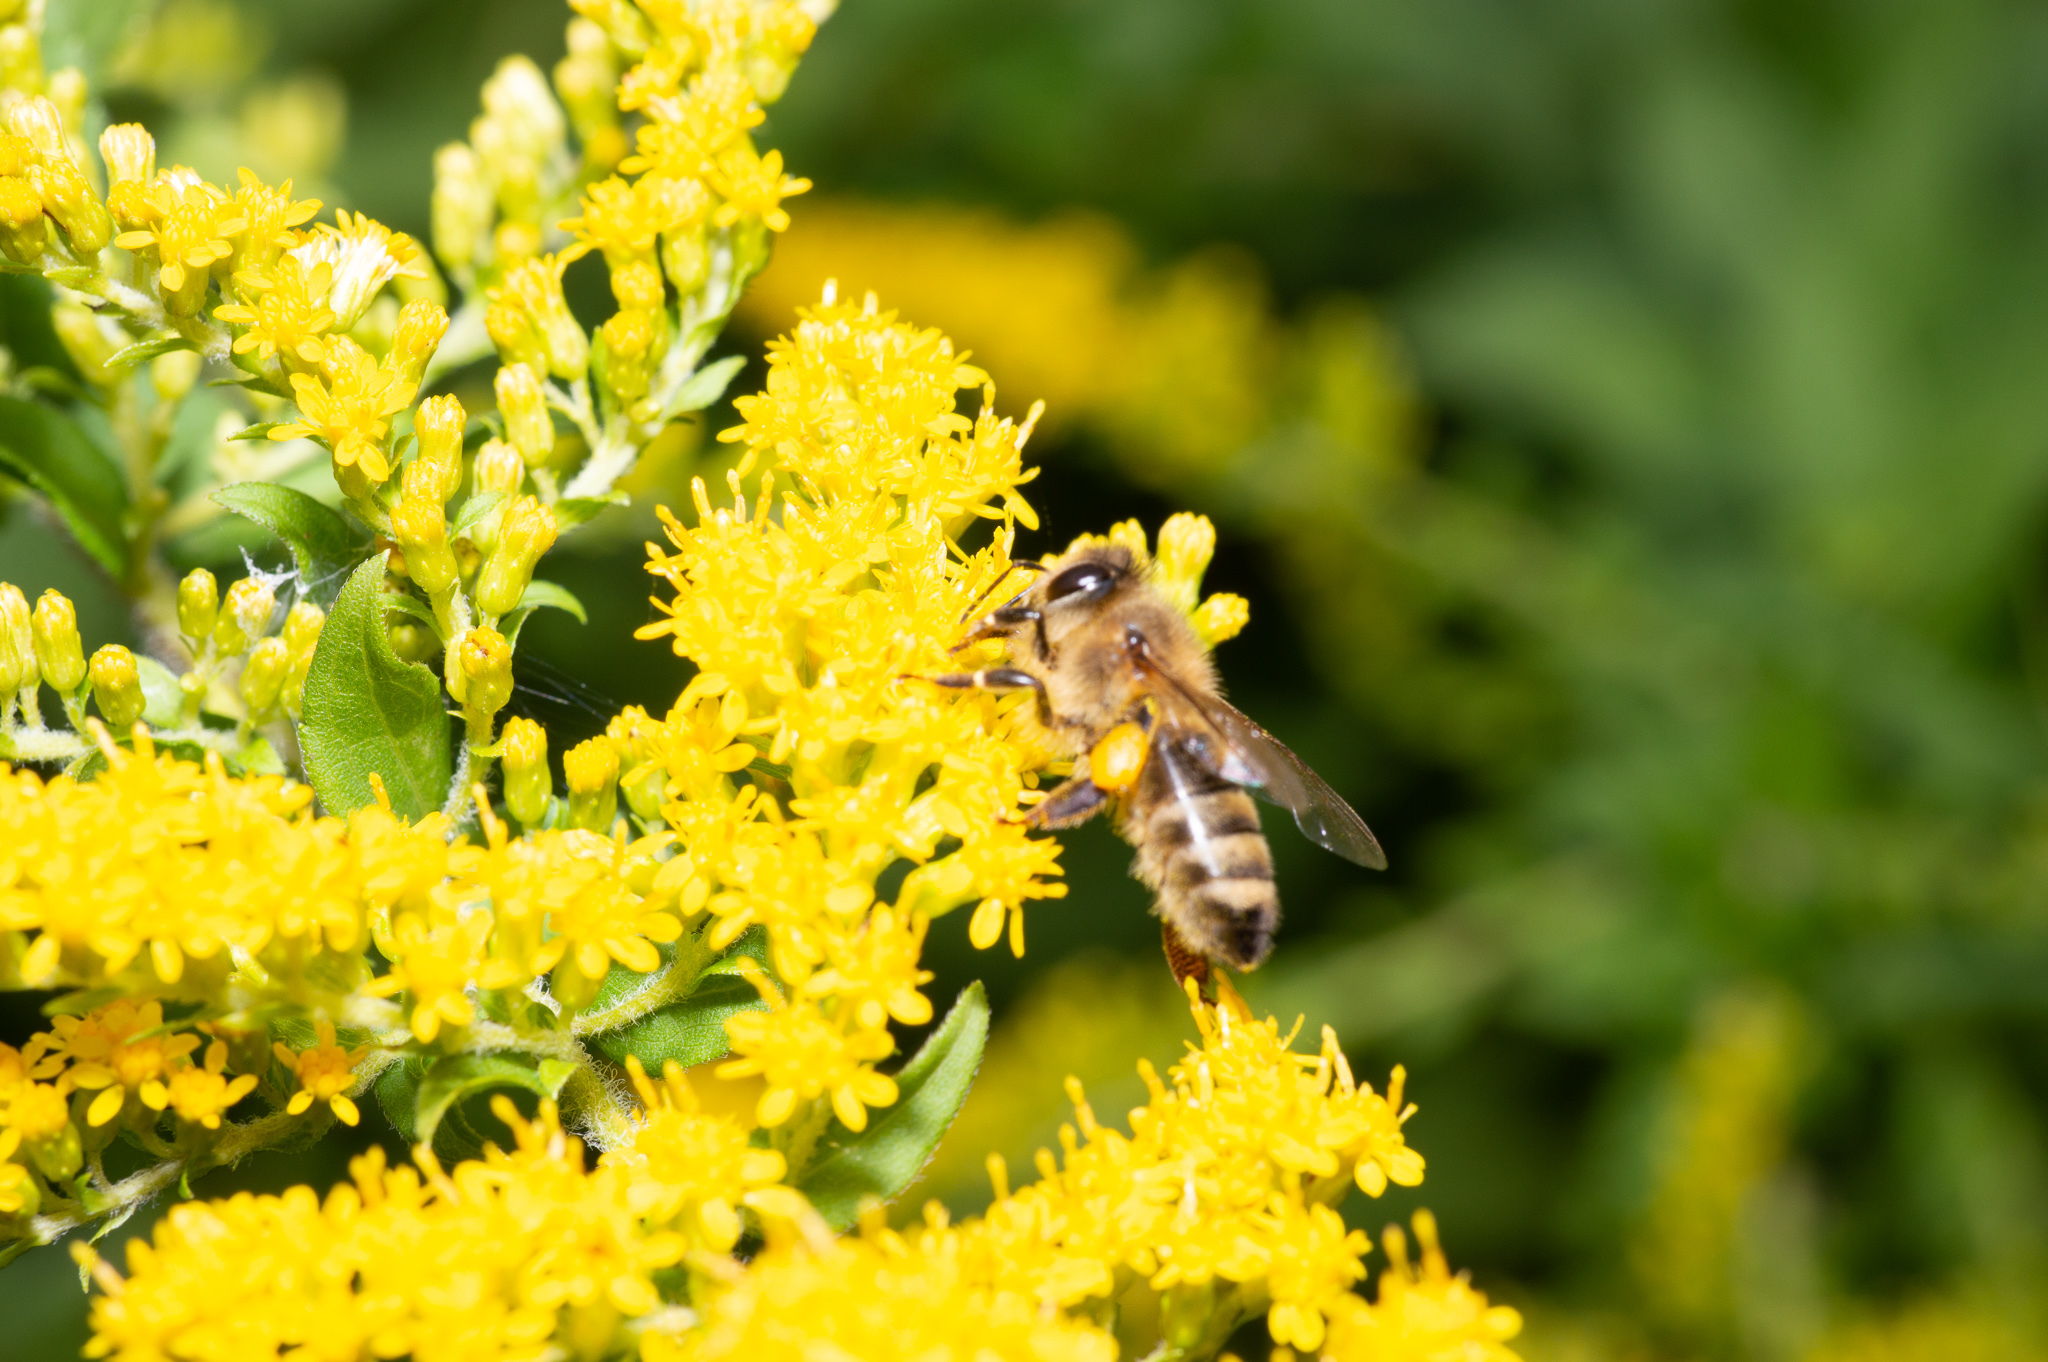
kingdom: Animalia
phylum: Arthropoda
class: Insecta
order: Hymenoptera
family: Apidae
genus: Apis
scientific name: Apis mellifera
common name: Honey bee
